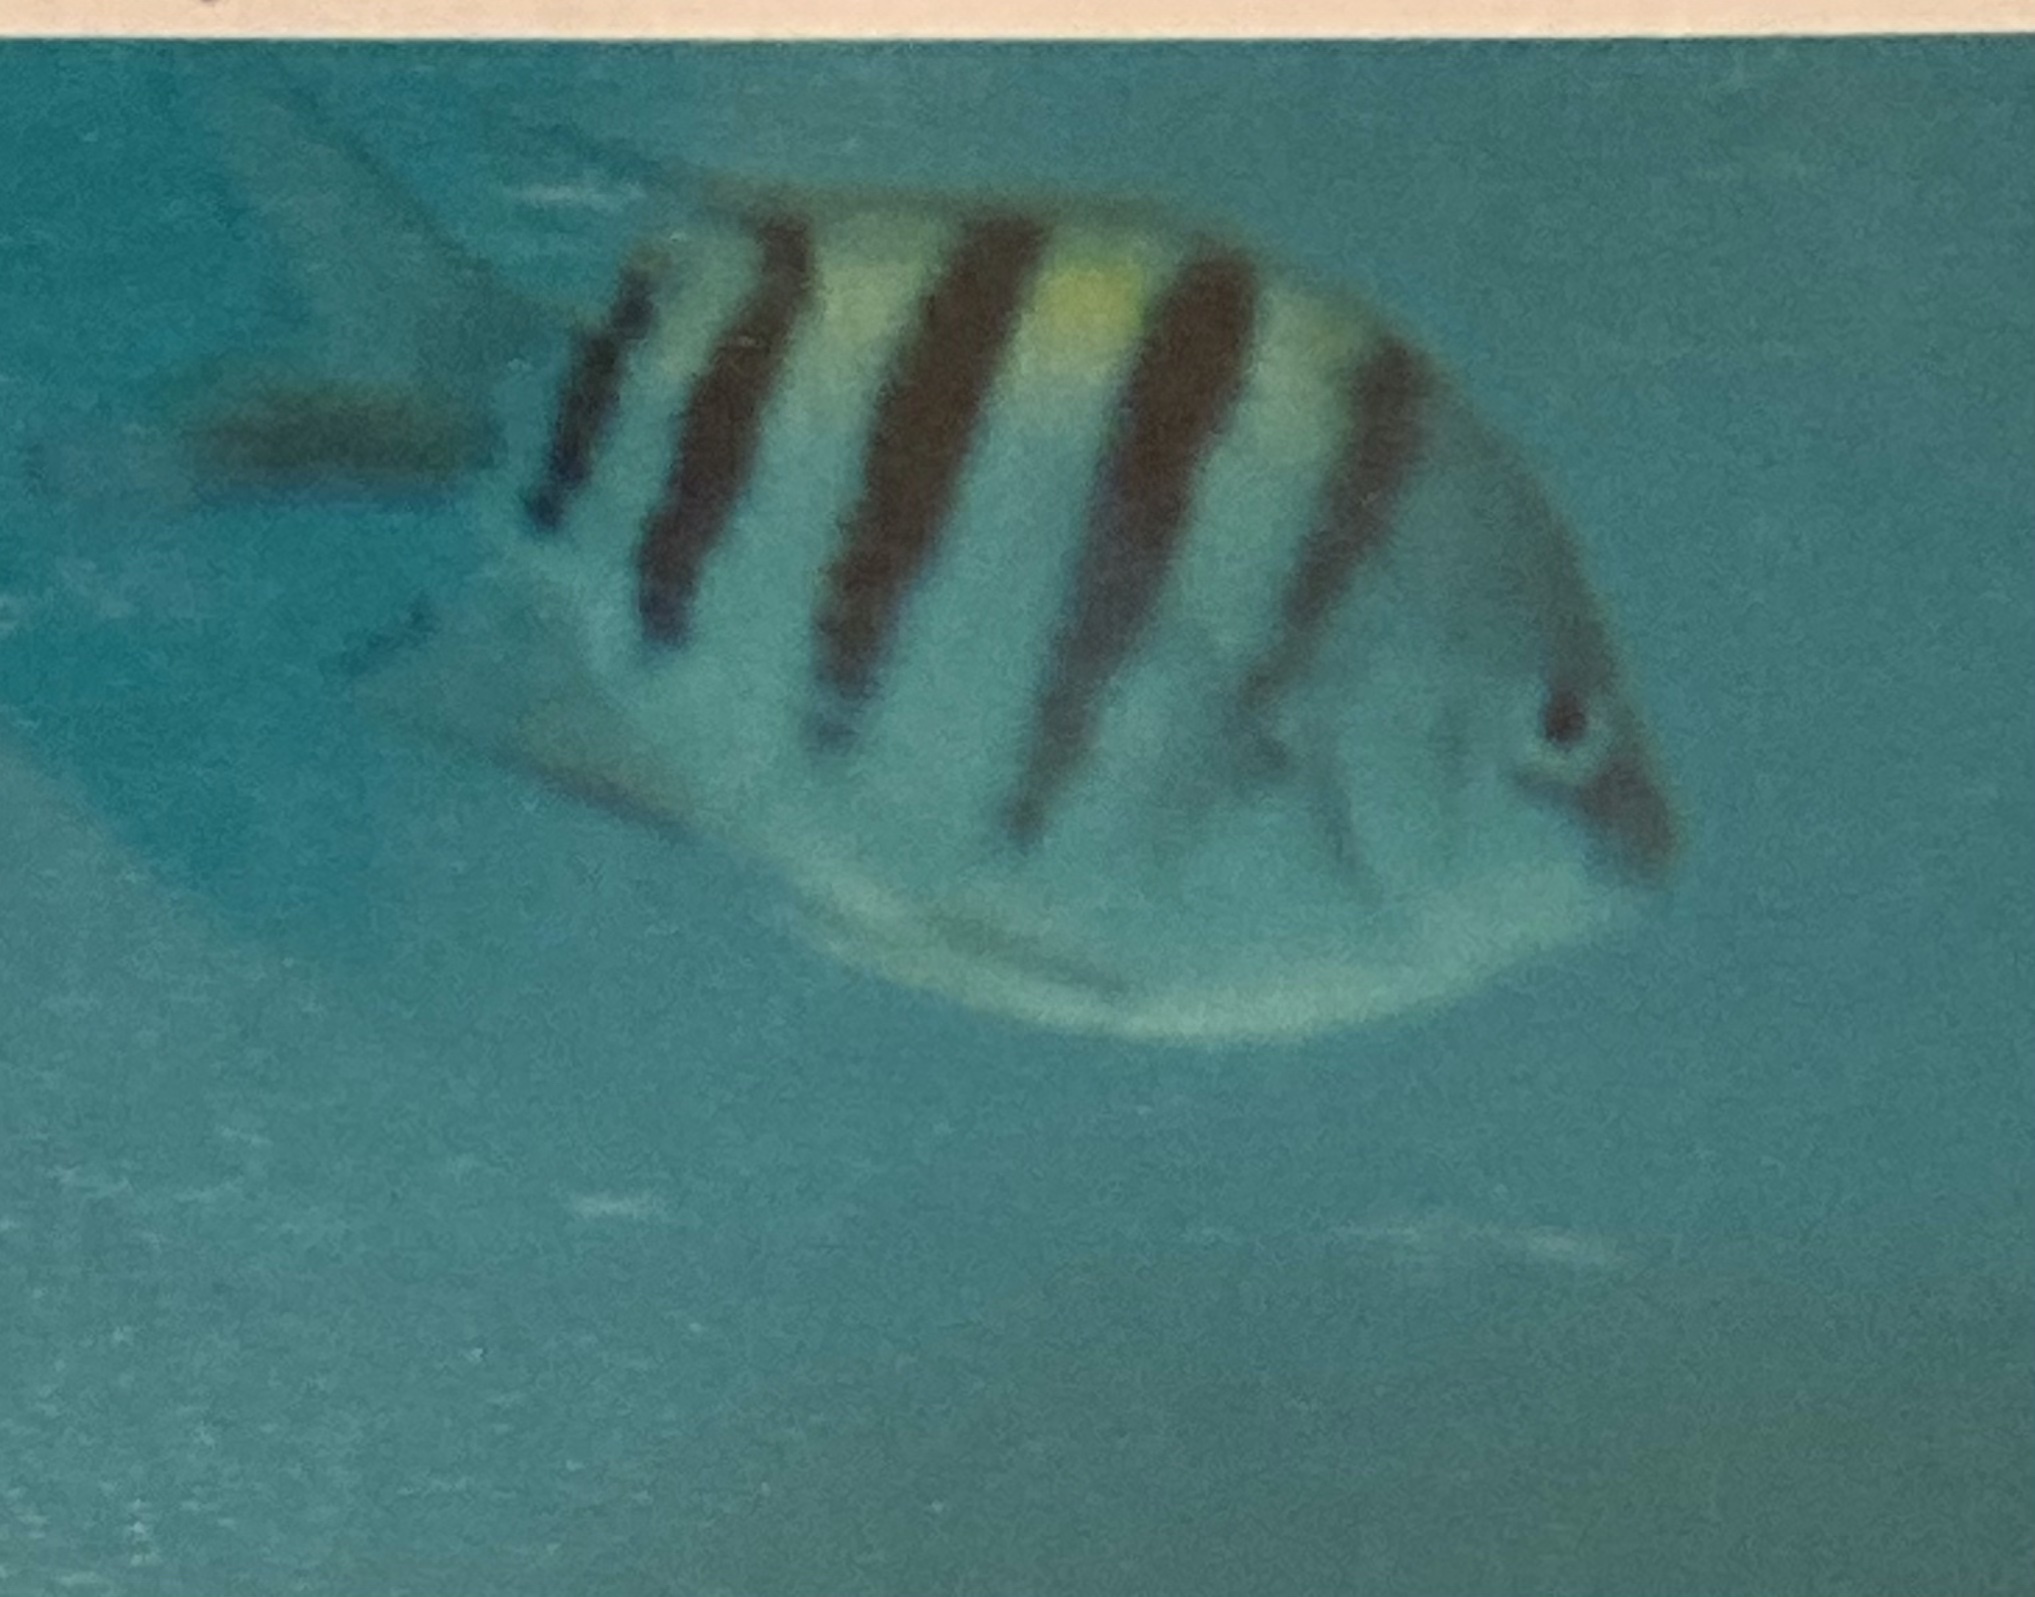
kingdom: Animalia
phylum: Chordata
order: Perciformes
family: Pomacentridae
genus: Abudefduf
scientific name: Abudefduf saxatilis
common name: Sergeant major
